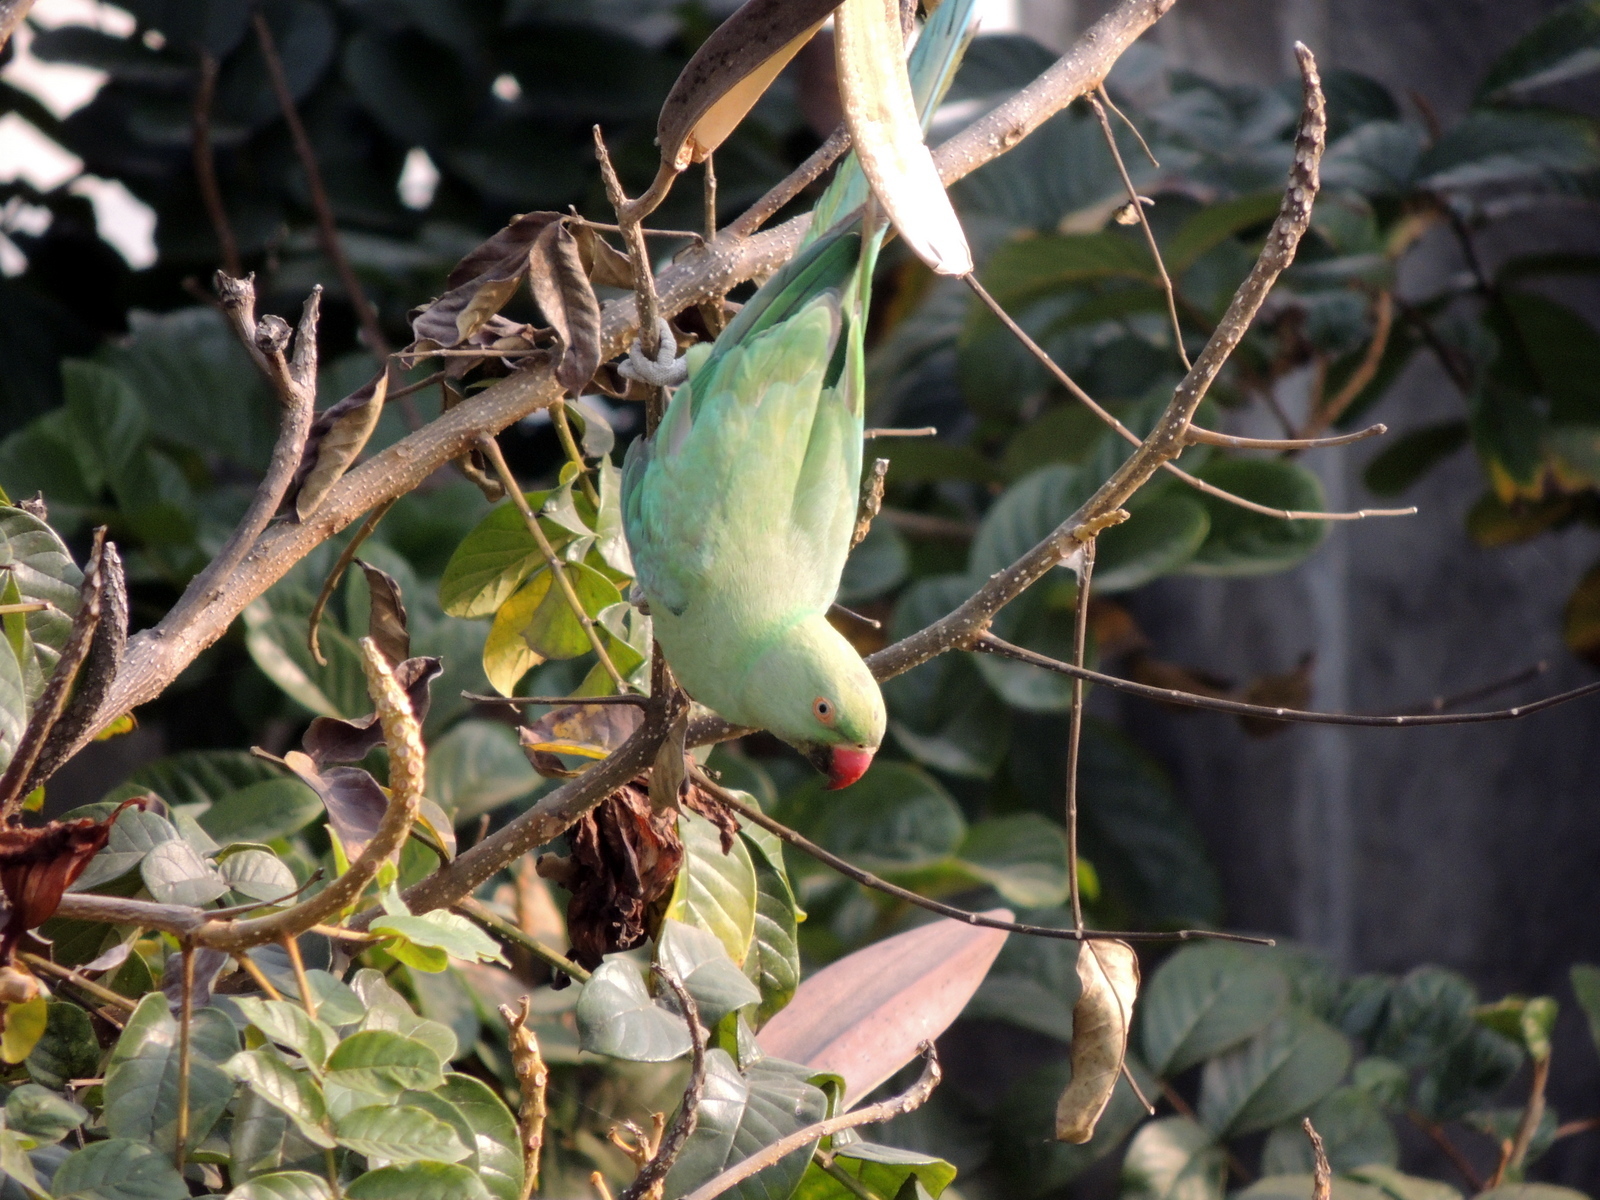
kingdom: Animalia
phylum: Chordata
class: Aves
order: Psittaciformes
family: Psittacidae
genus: Psittacula
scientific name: Psittacula krameri
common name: Rose-ringed parakeet
